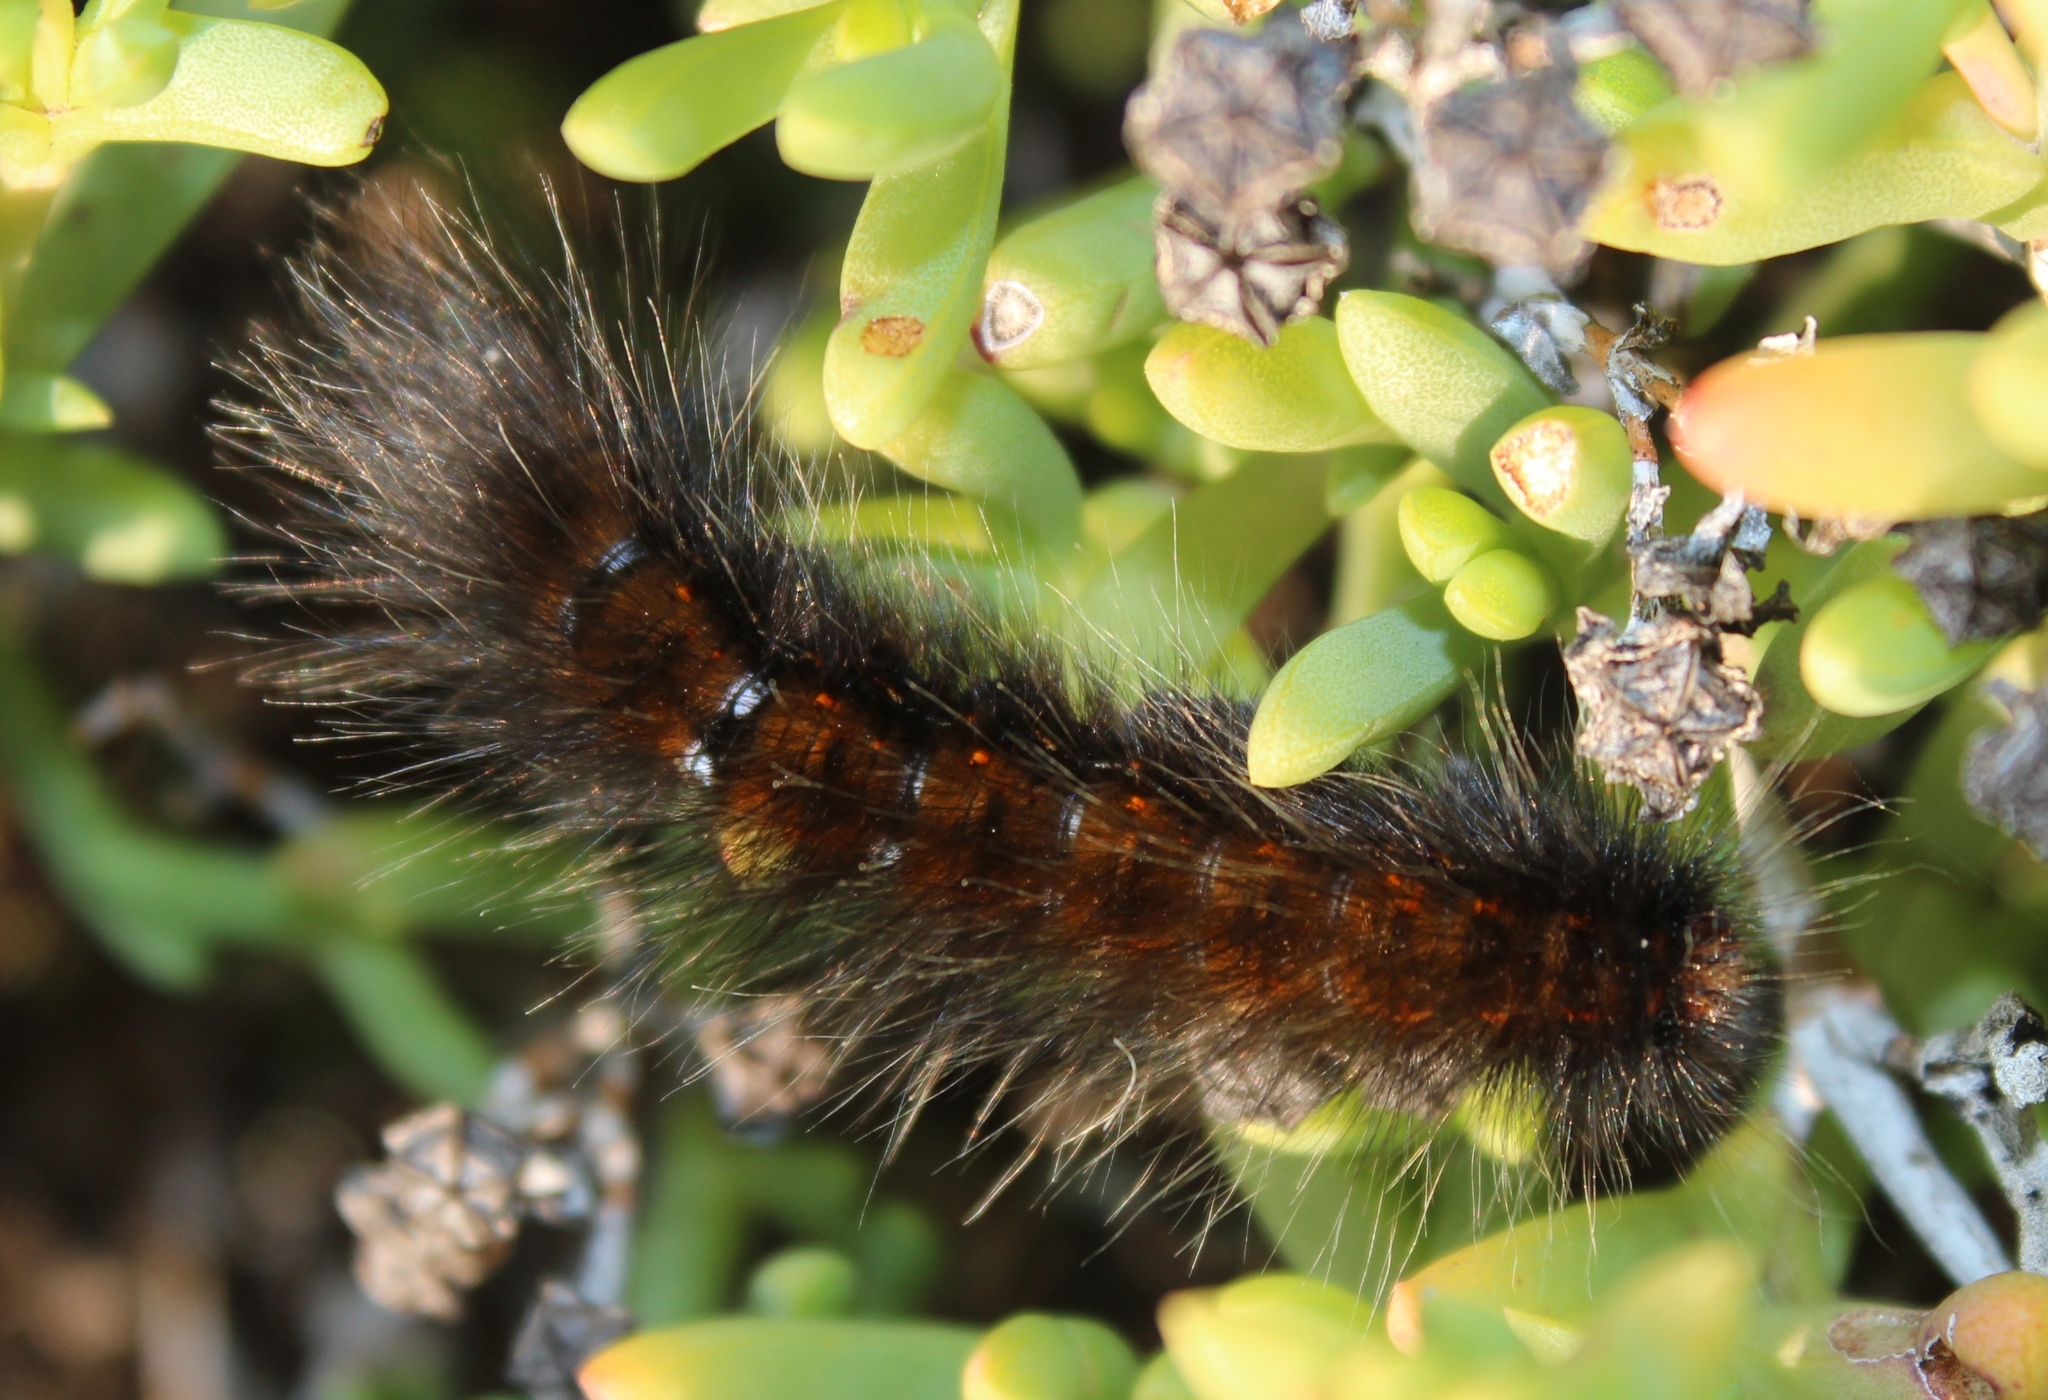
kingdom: Animalia
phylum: Arthropoda
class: Insecta
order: Lepidoptera
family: Lasiocampidae
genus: Mesocelis
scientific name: Mesocelis monticola
